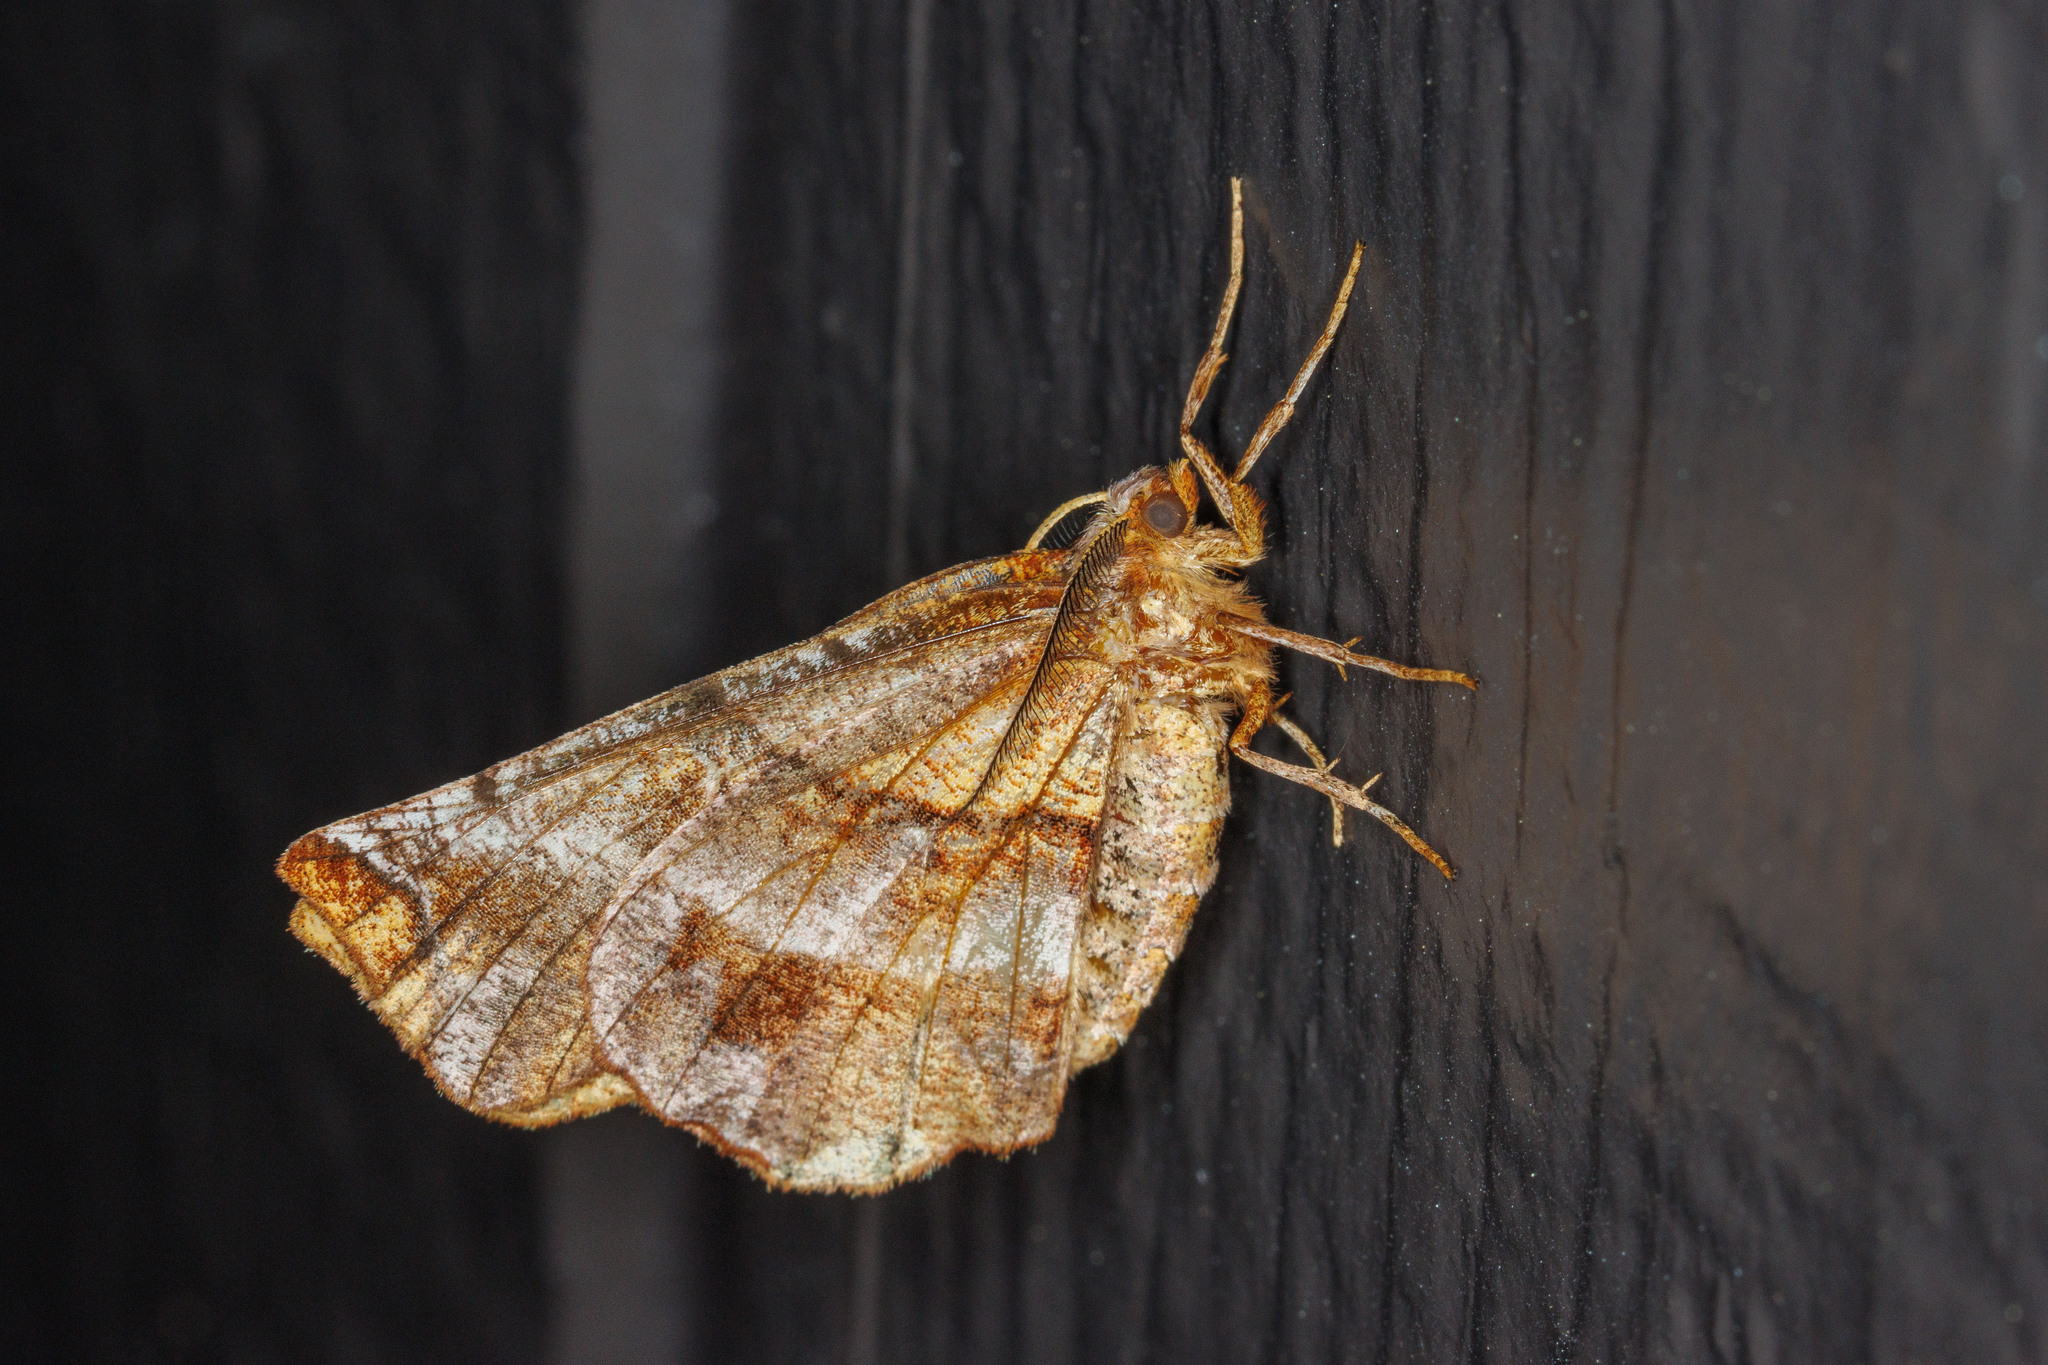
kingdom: Animalia
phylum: Arthropoda
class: Insecta
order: Lepidoptera
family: Geometridae
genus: Selenia
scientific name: Selenia alciphearia
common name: Brown-tipped thorn
